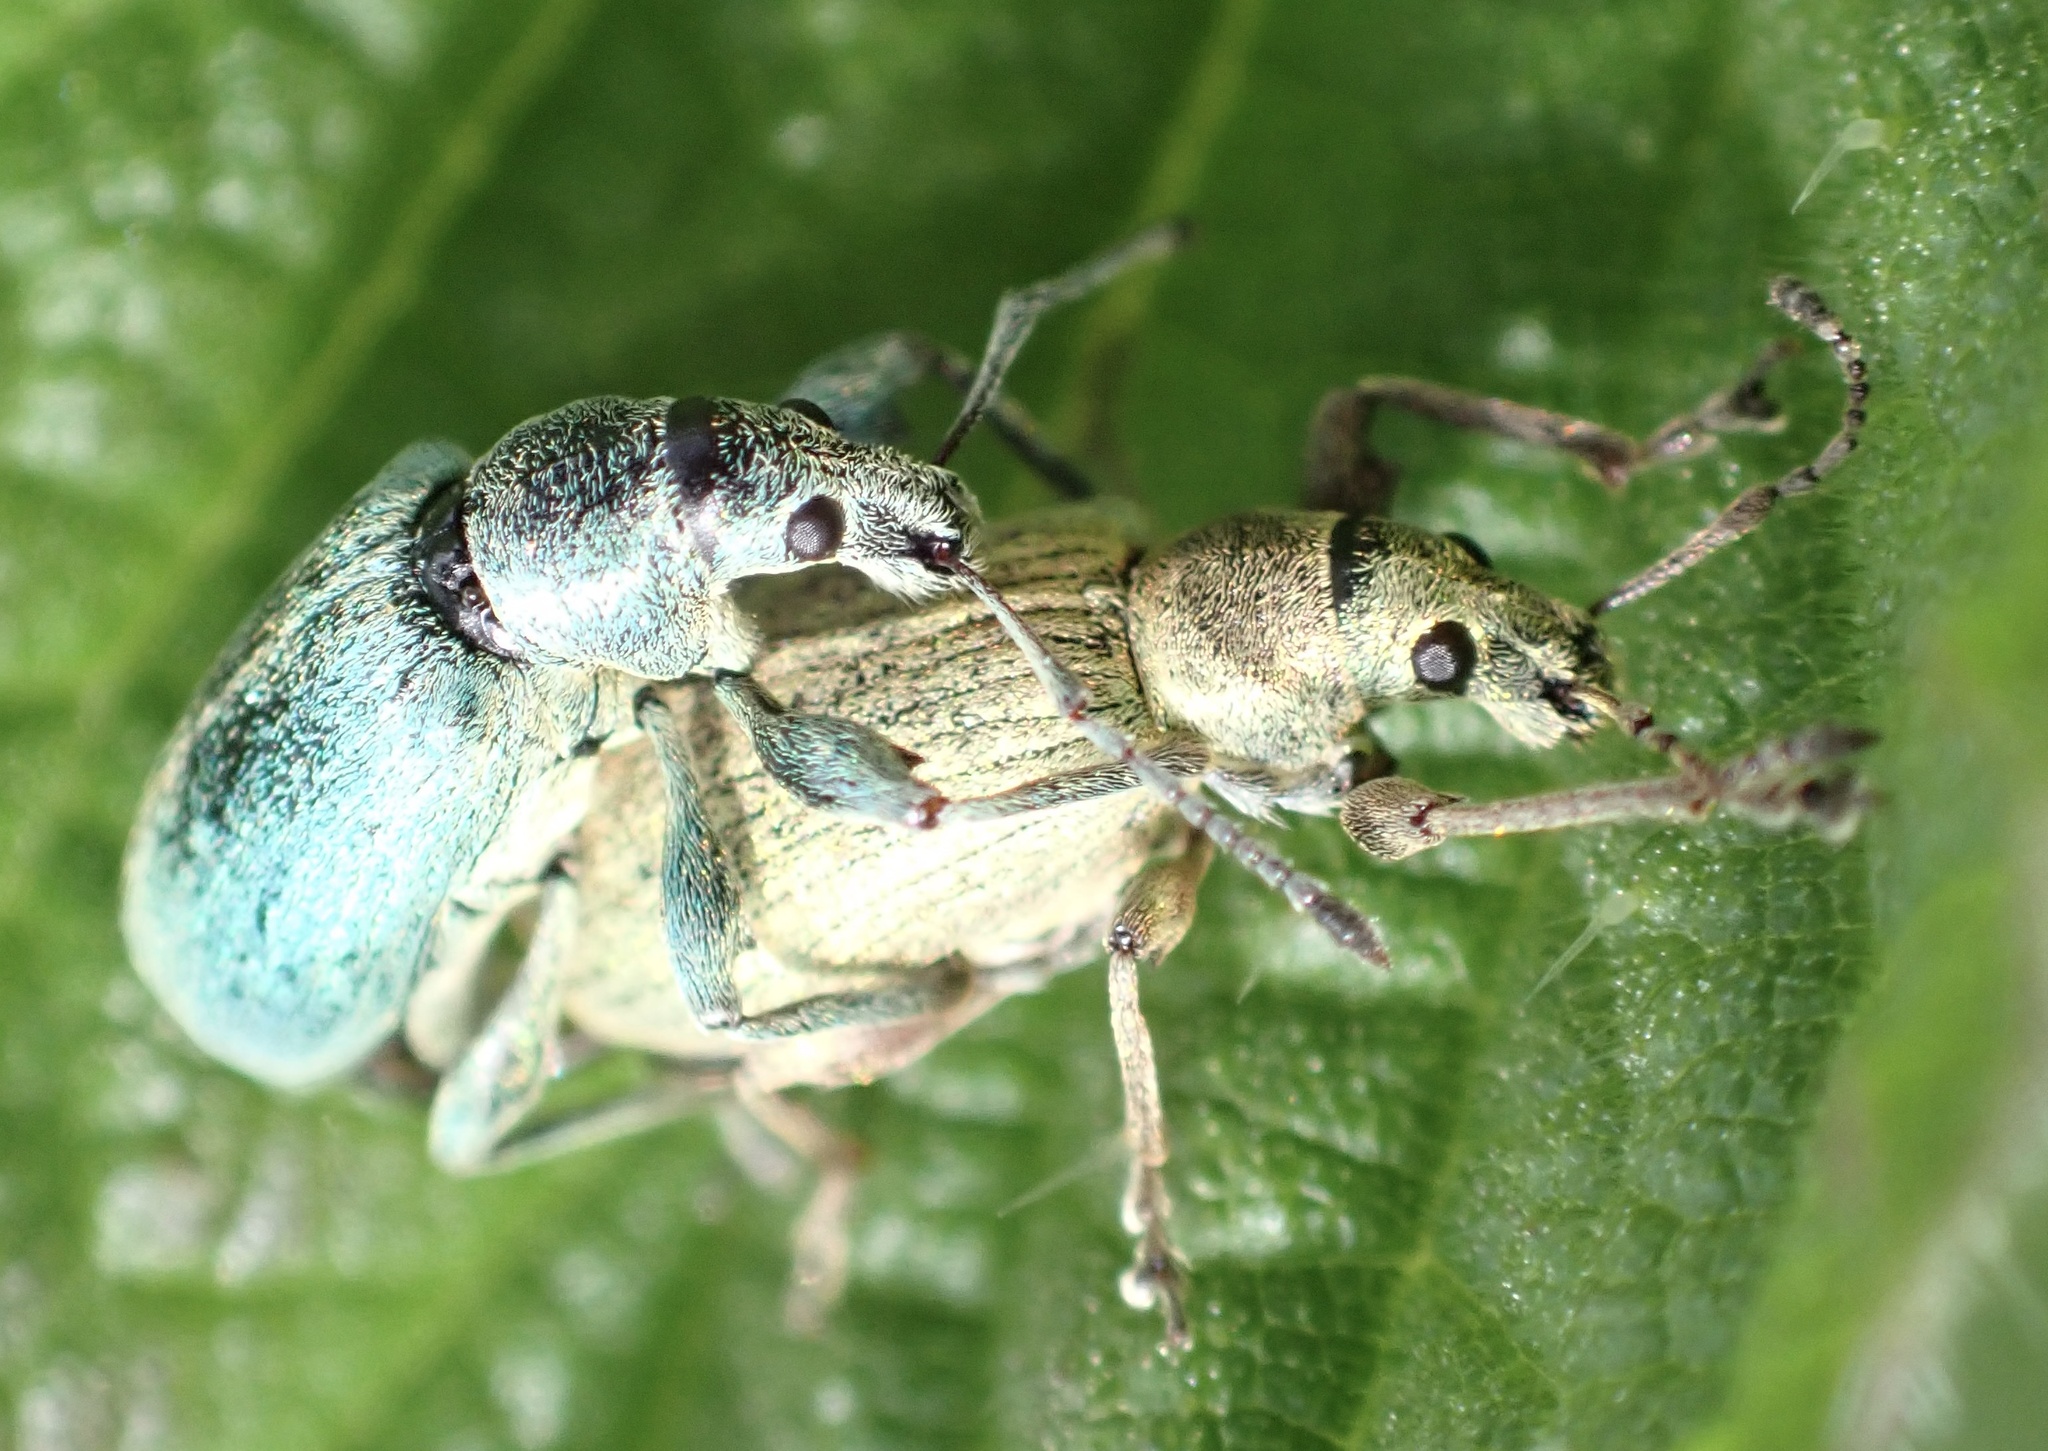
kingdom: Animalia
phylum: Arthropoda
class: Insecta
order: Coleoptera
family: Curculionidae
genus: Phyllobius
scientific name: Phyllobius pomaceus
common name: Green nettle weevil
